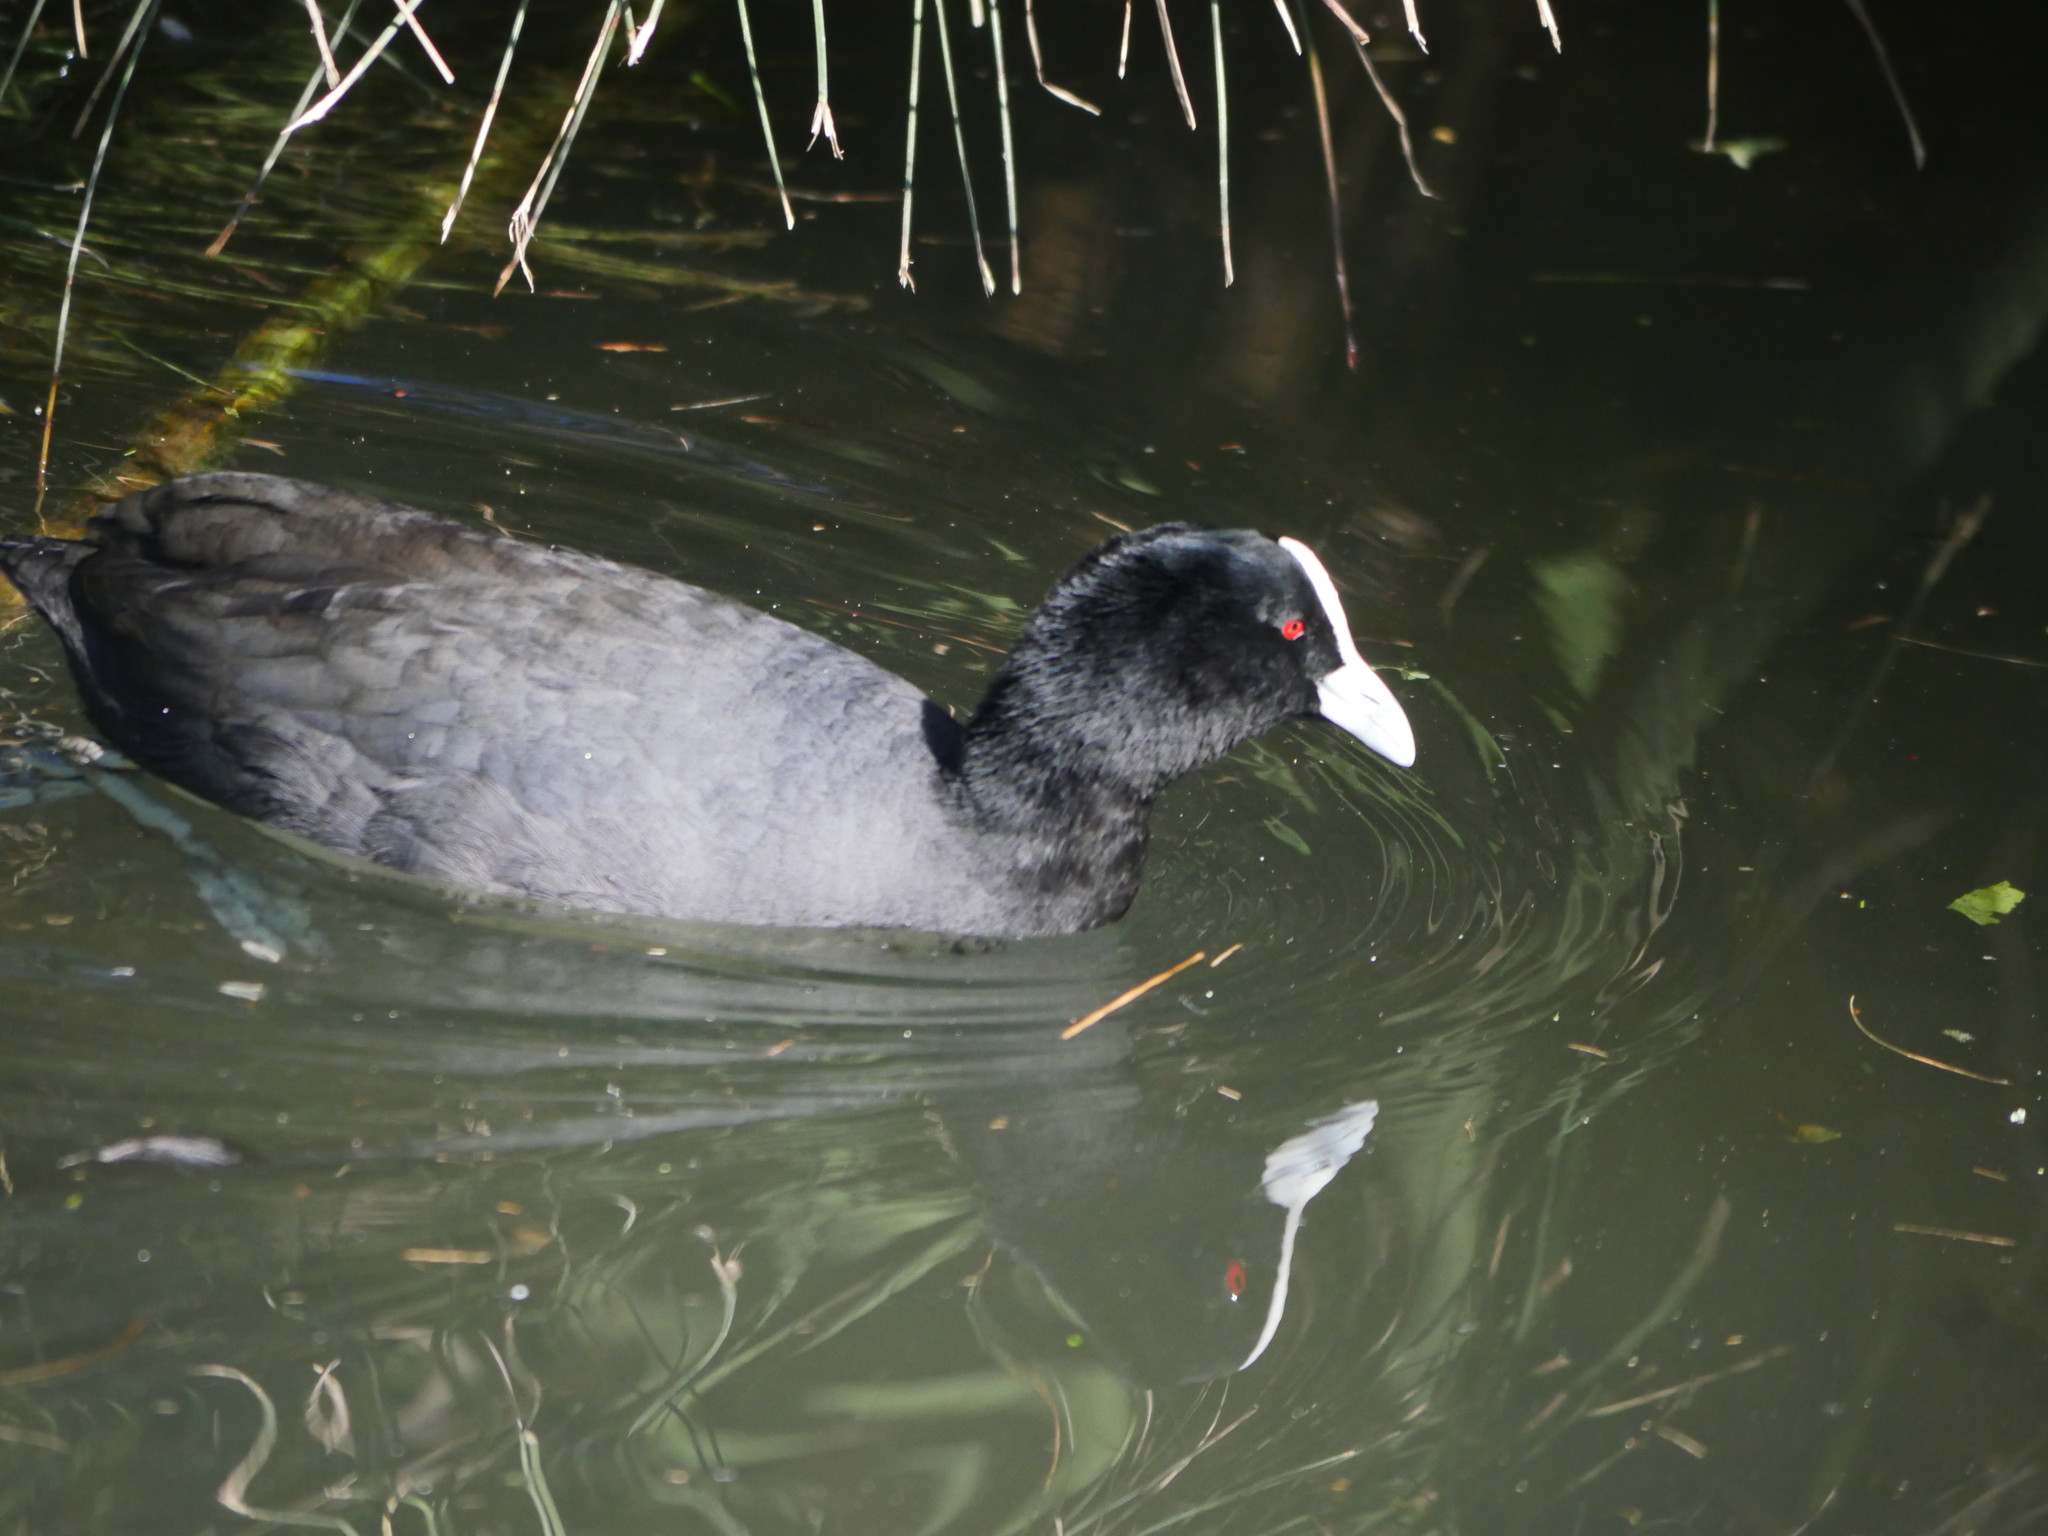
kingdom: Animalia
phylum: Chordata
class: Aves
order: Gruiformes
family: Rallidae
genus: Fulica
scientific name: Fulica atra
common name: Eurasian coot
